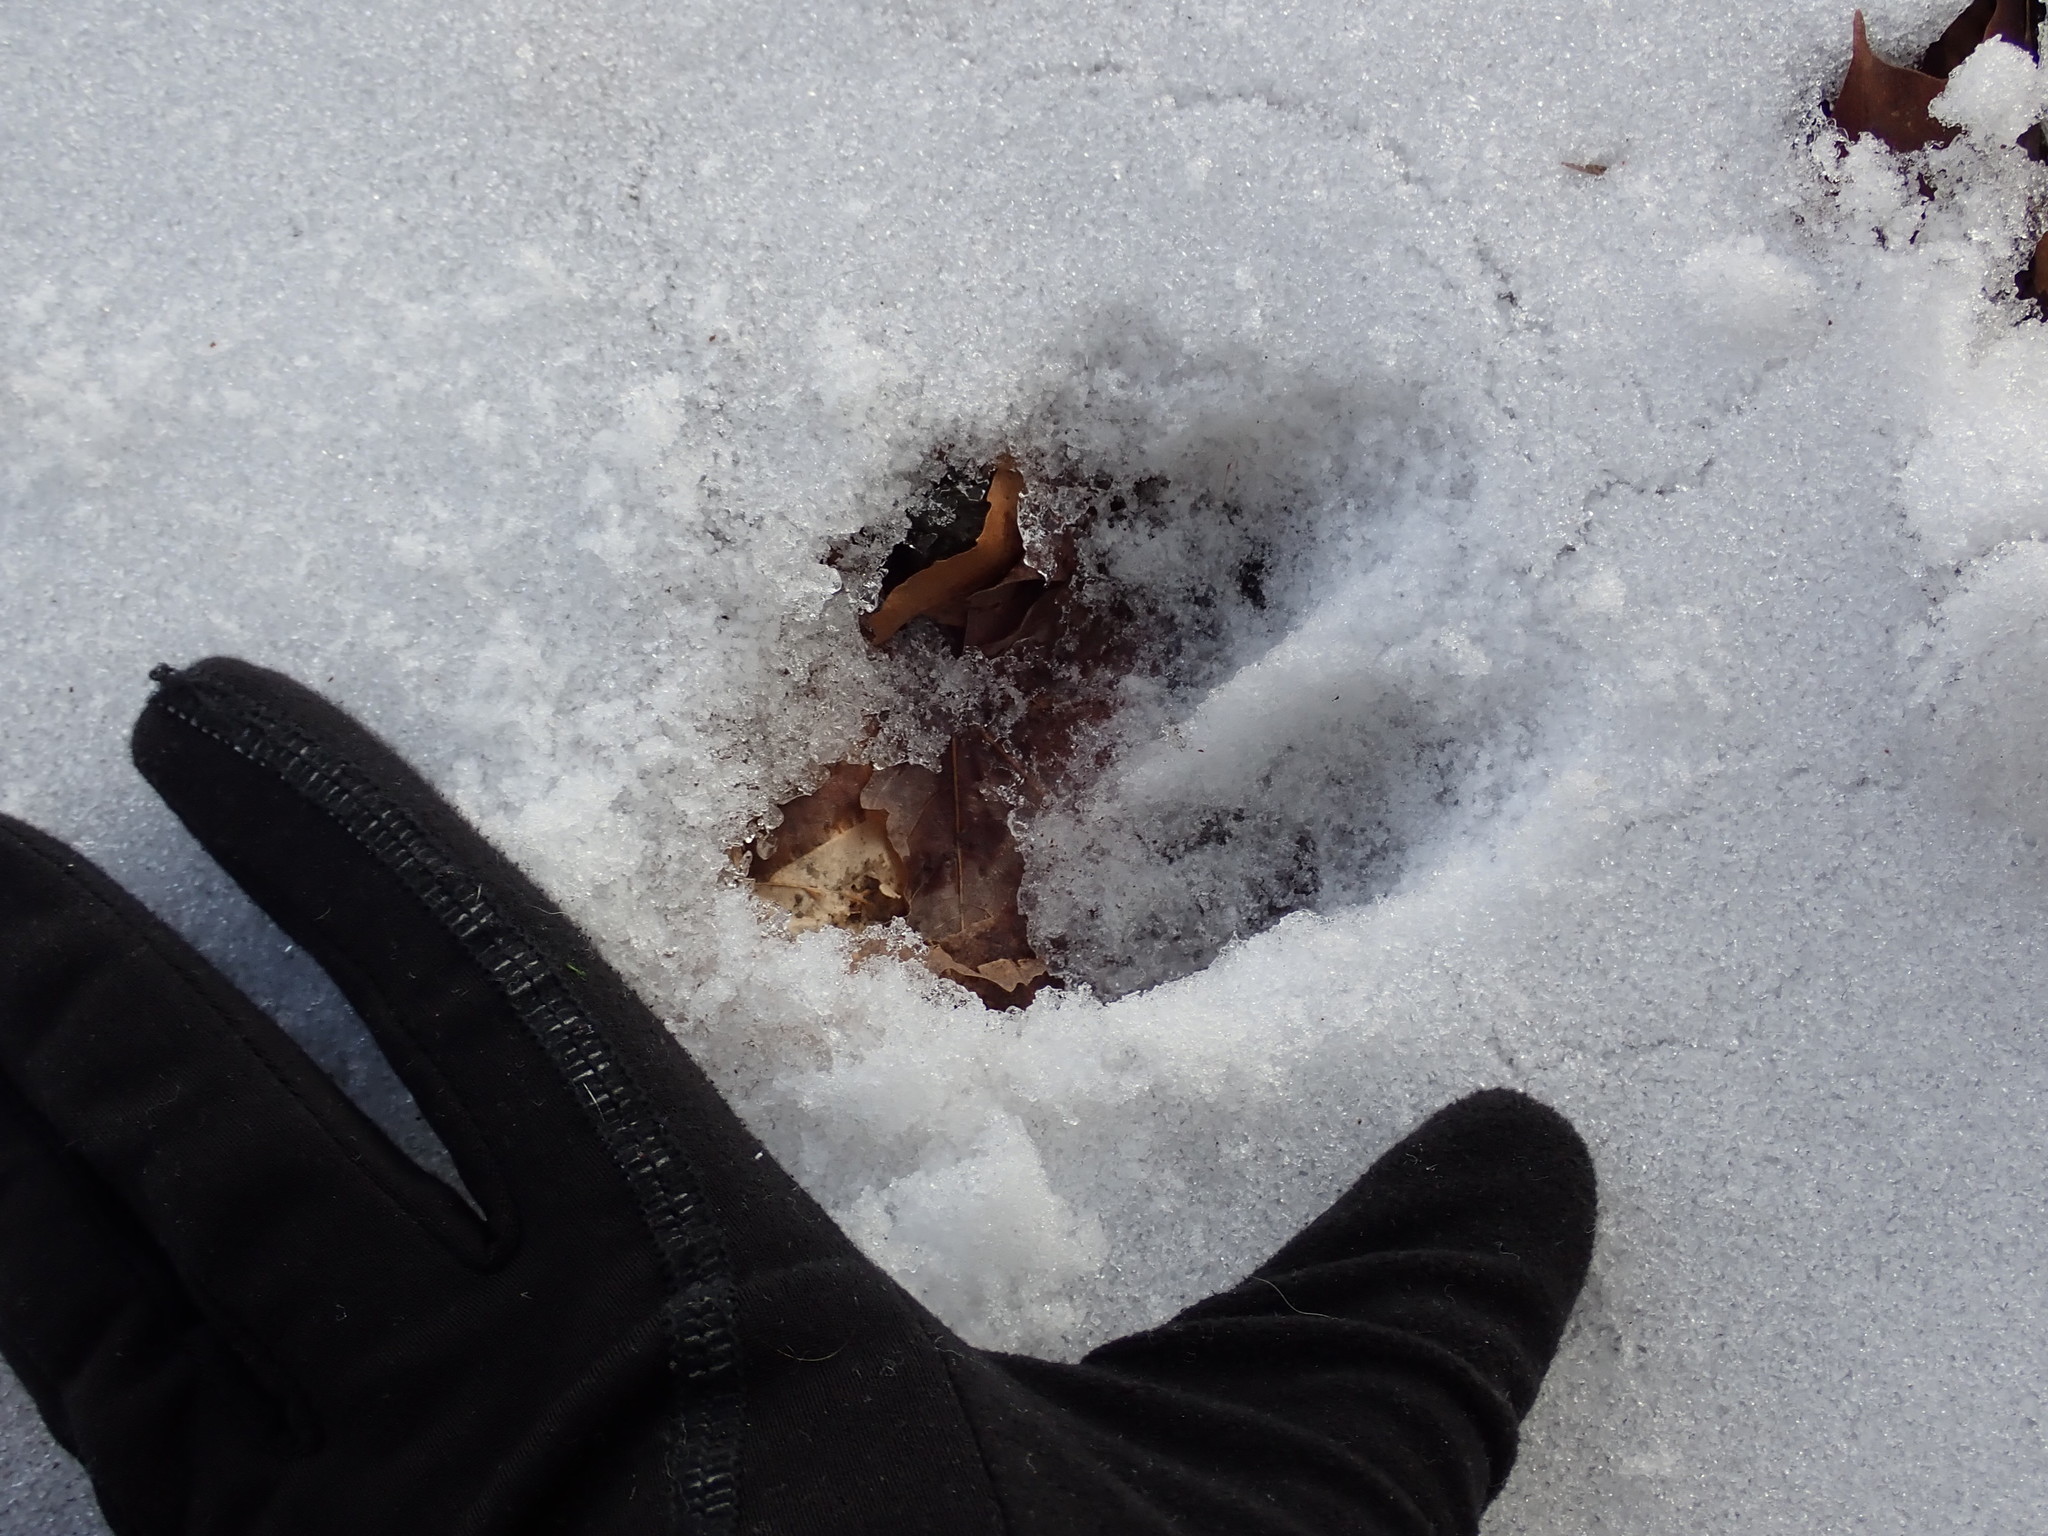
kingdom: Animalia
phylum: Chordata
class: Mammalia
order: Artiodactyla
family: Cervidae
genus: Odocoileus
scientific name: Odocoileus virginianus
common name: White-tailed deer
